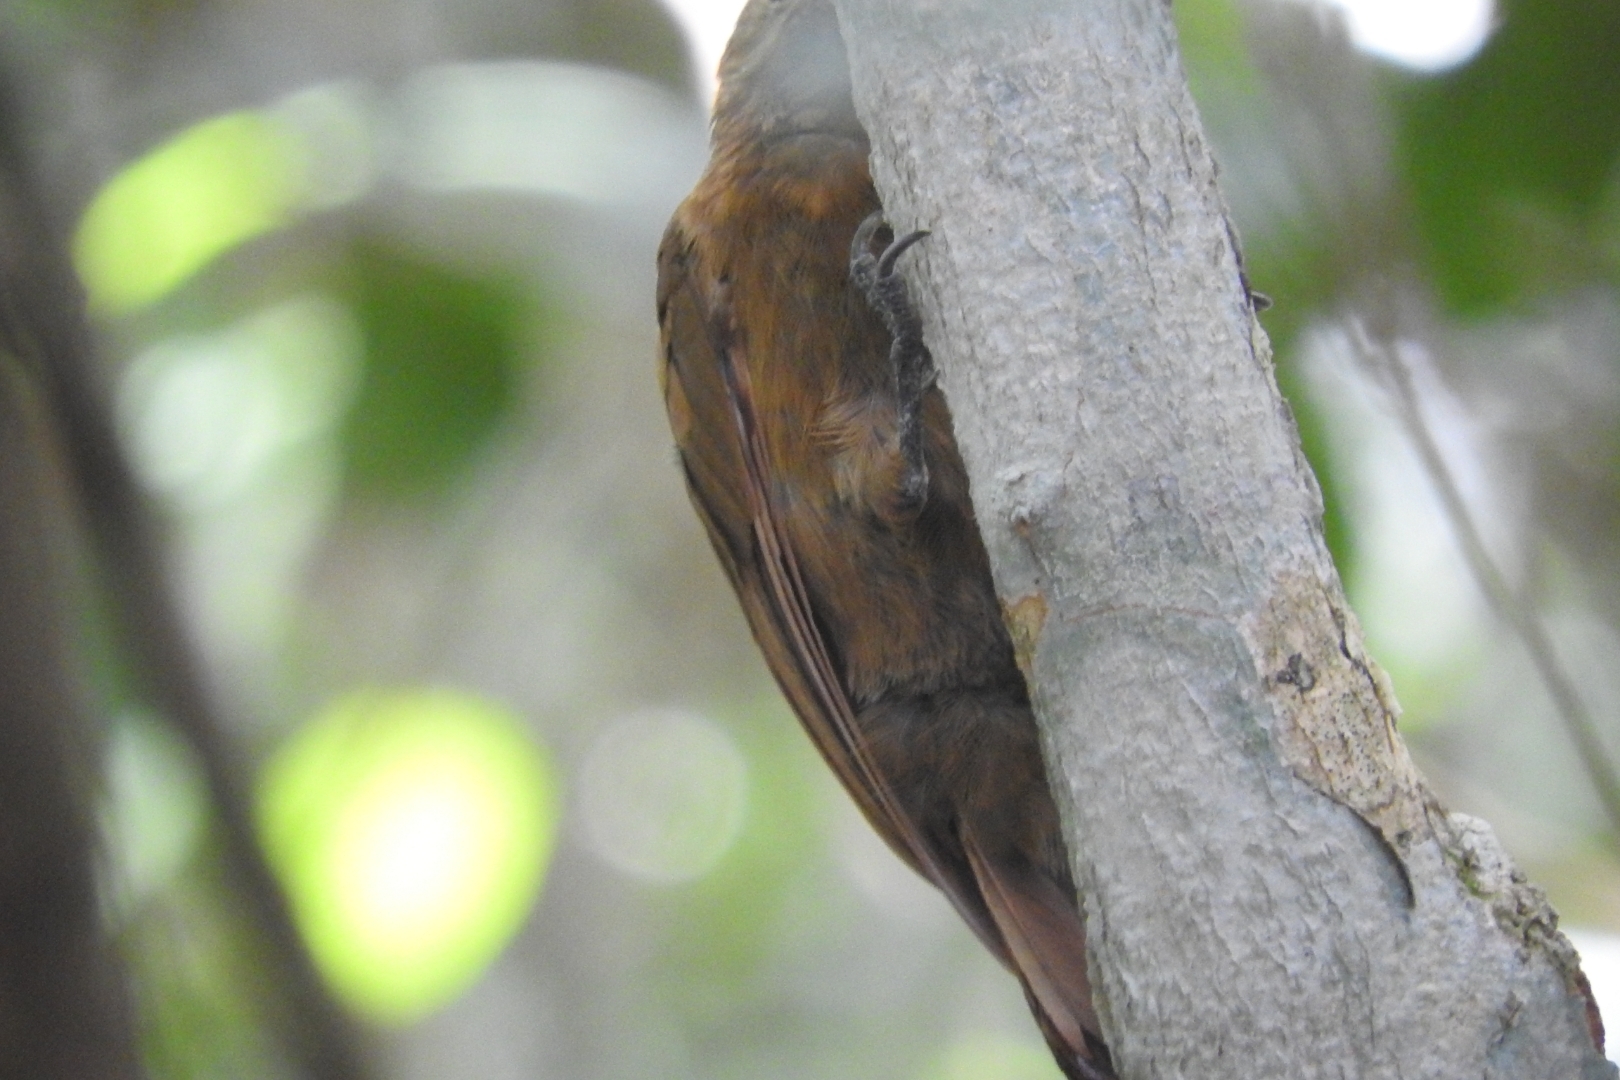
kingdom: Animalia
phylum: Chordata
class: Aves
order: Piciformes
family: Picidae
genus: Leuconotopicus
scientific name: Leuconotopicus fumigatus
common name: Smoky-brown woodpecker
